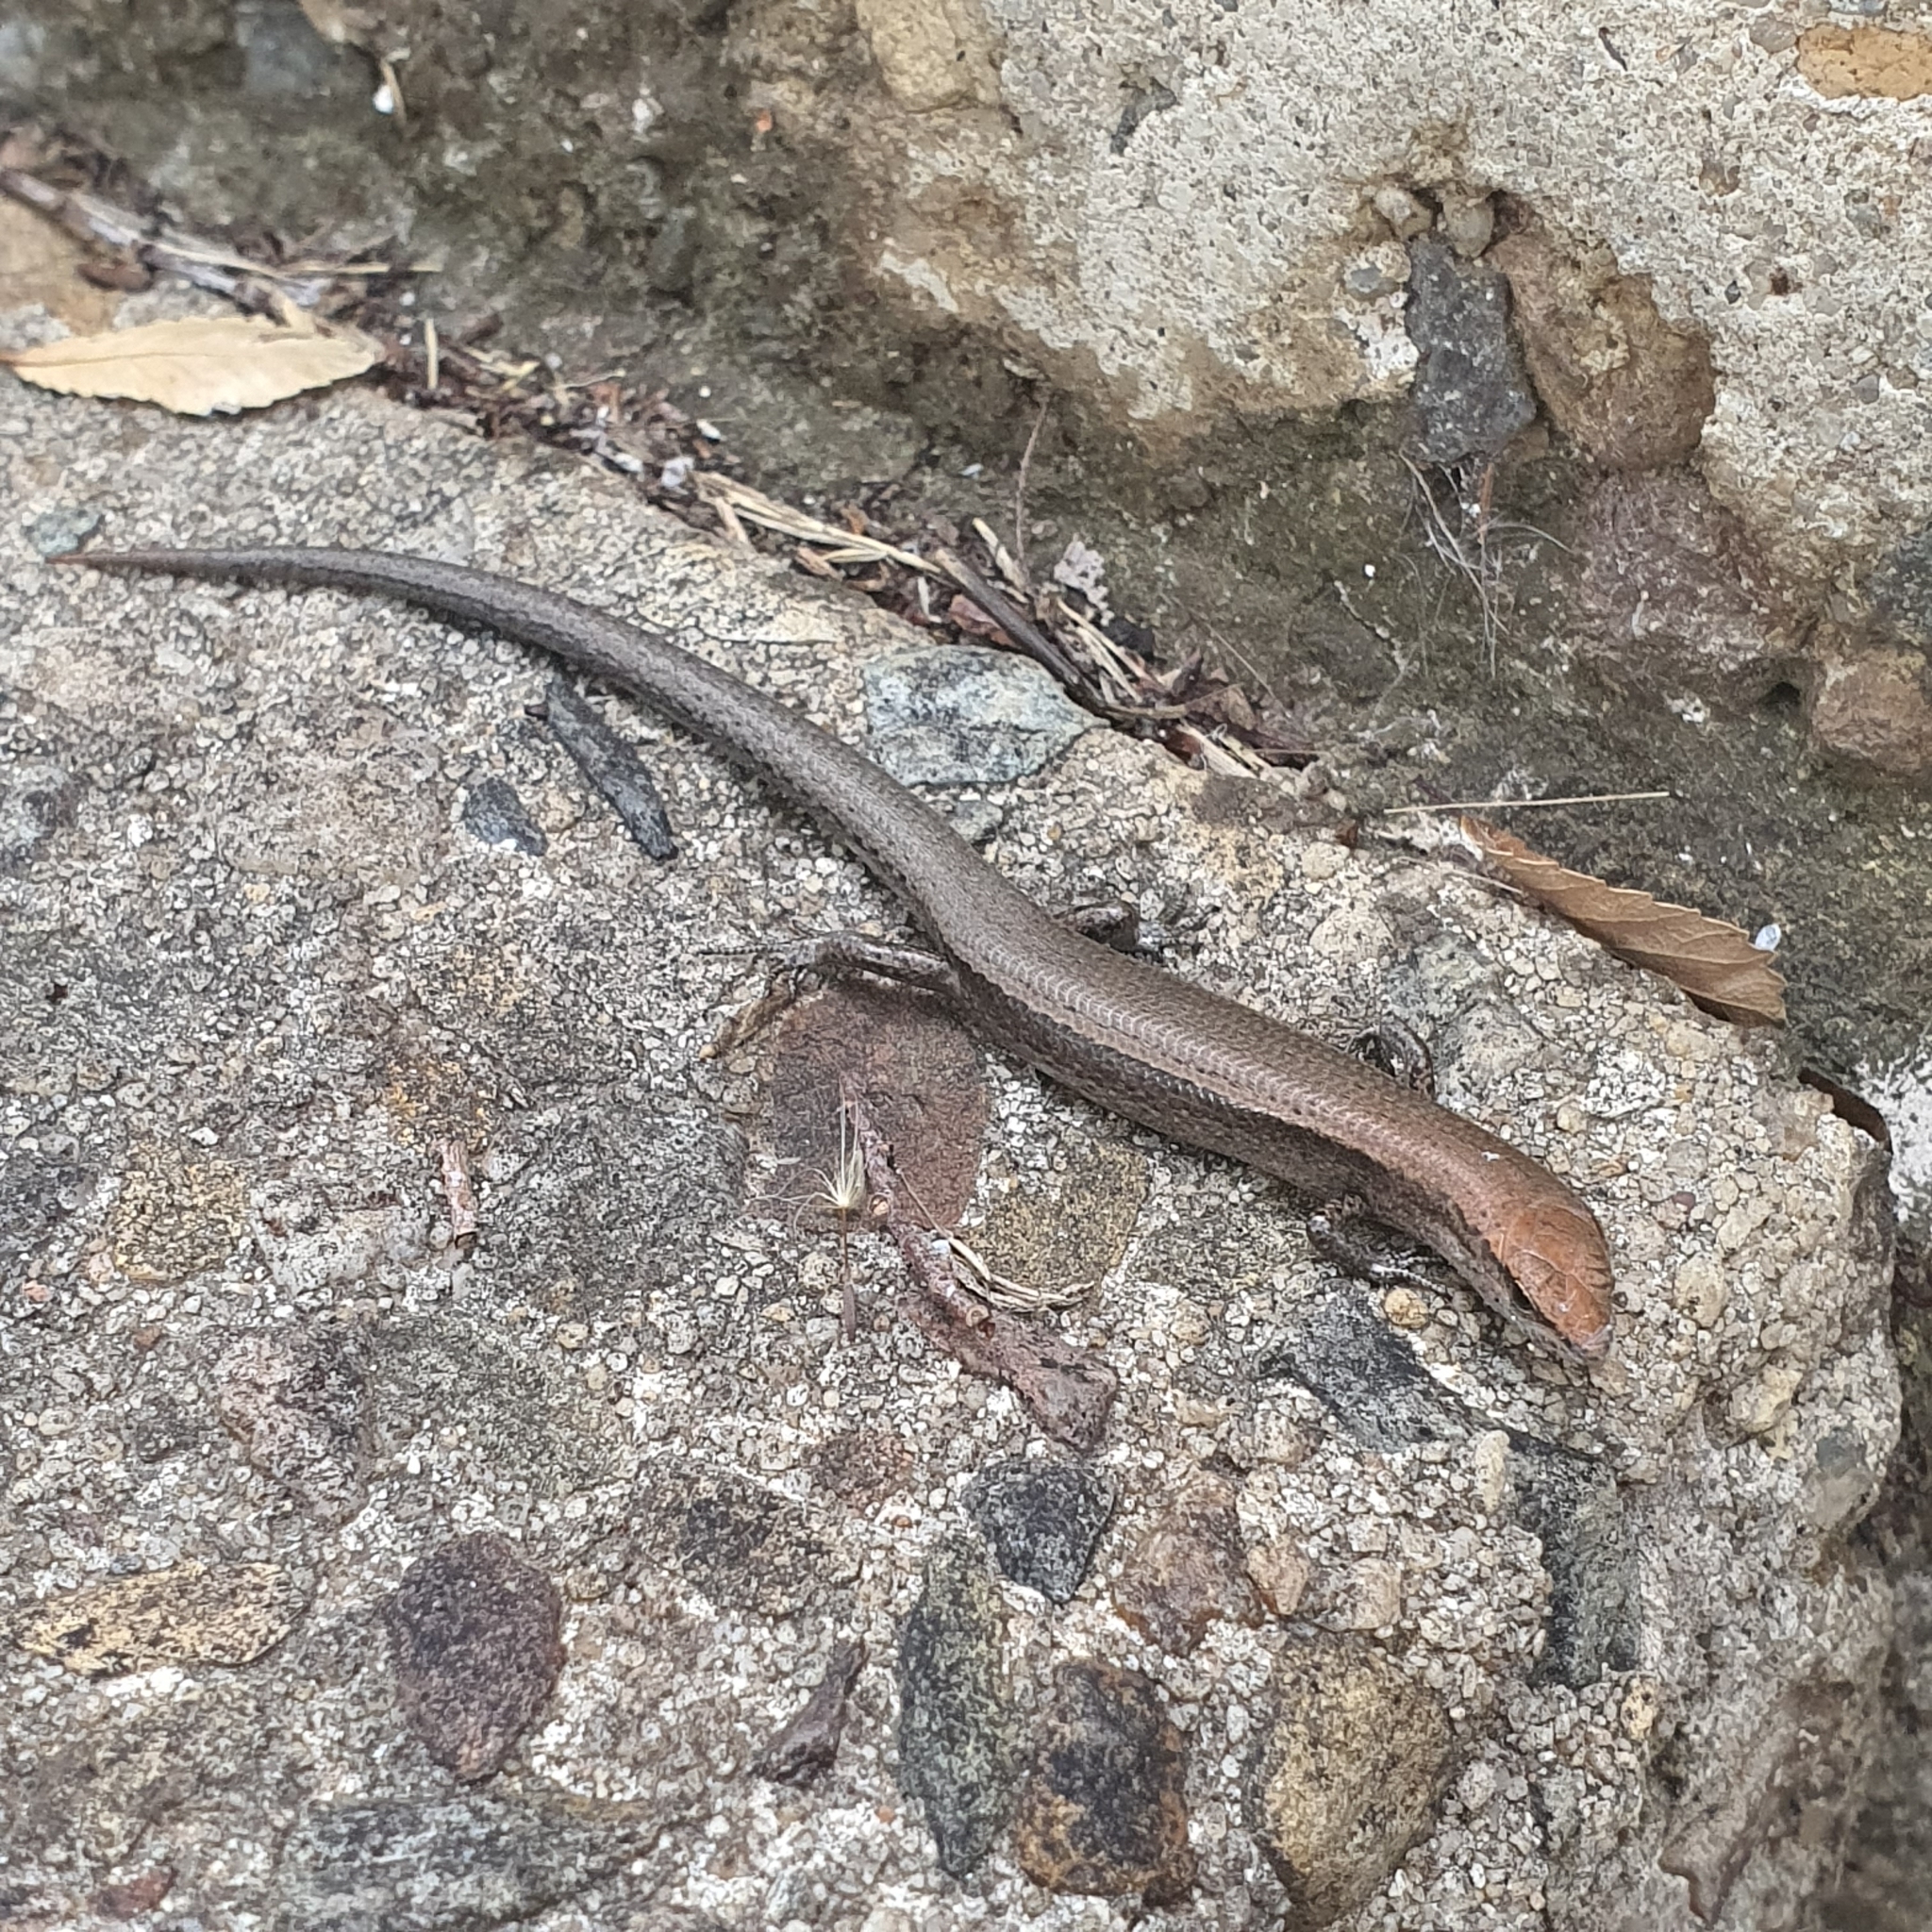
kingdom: Animalia
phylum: Chordata
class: Squamata
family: Scincidae
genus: Lampropholis
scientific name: Lampropholis delicata
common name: Plague skink
